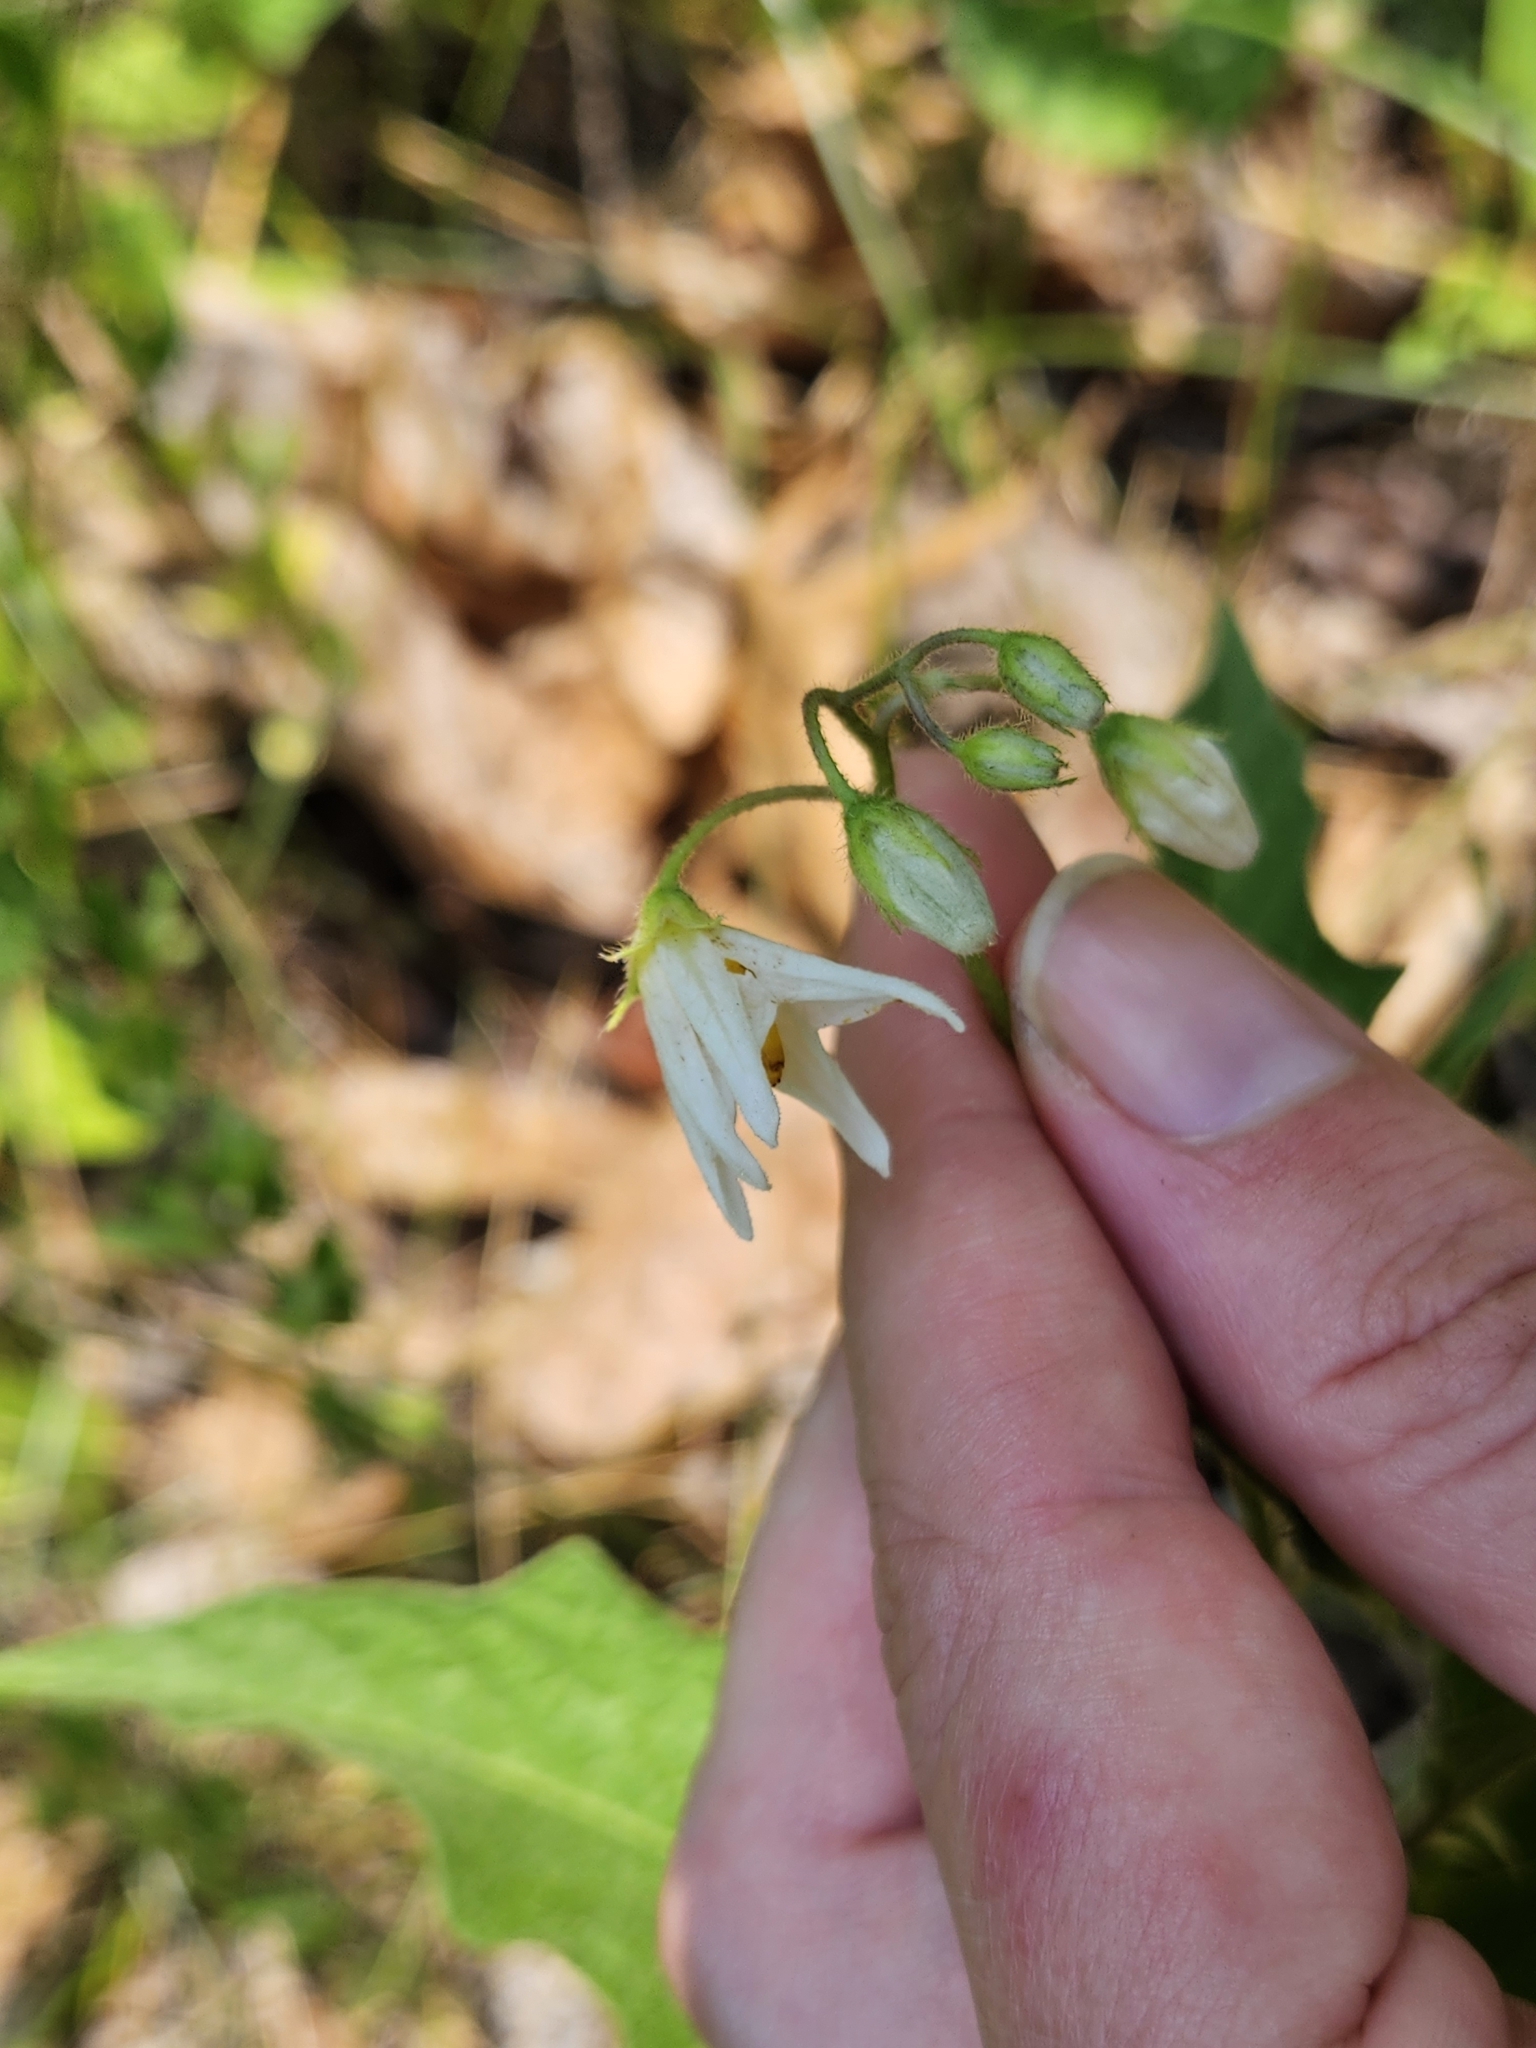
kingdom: Plantae
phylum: Tracheophyta
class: Magnoliopsida
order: Solanales
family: Solanaceae
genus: Solanum
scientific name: Solanum carolinense
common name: Horse-nettle
